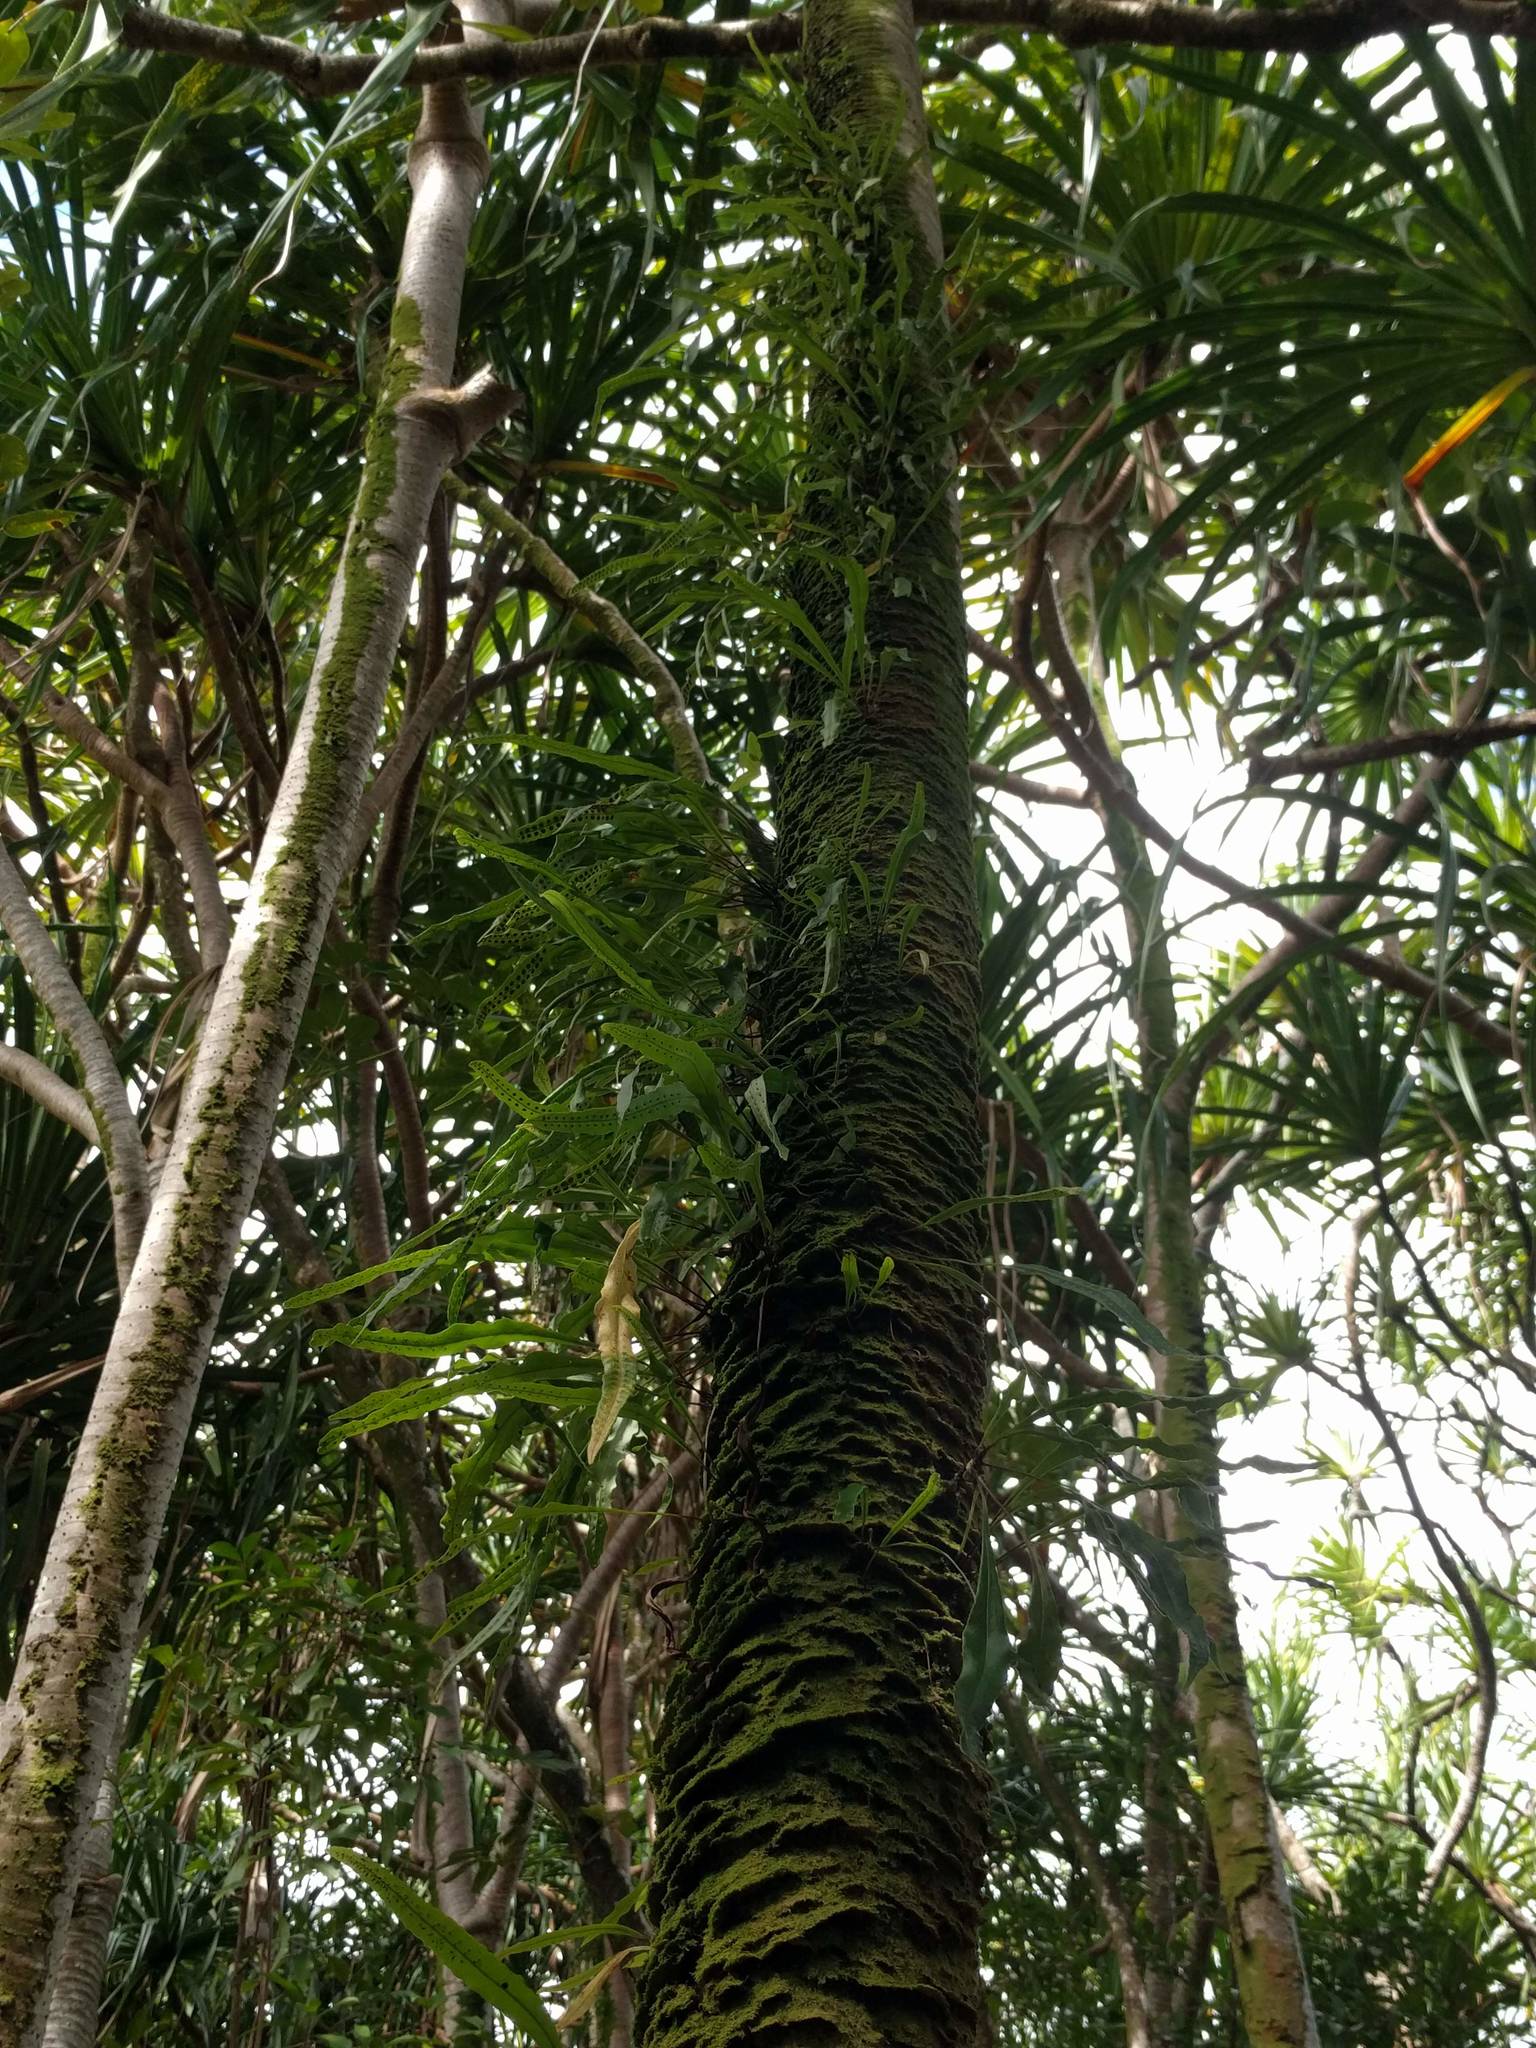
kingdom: Plantae
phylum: Tracheophyta
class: Polypodiopsida
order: Polypodiales
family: Polypodiaceae
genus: Lepisorus
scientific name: Lepisorus thunbergianus
